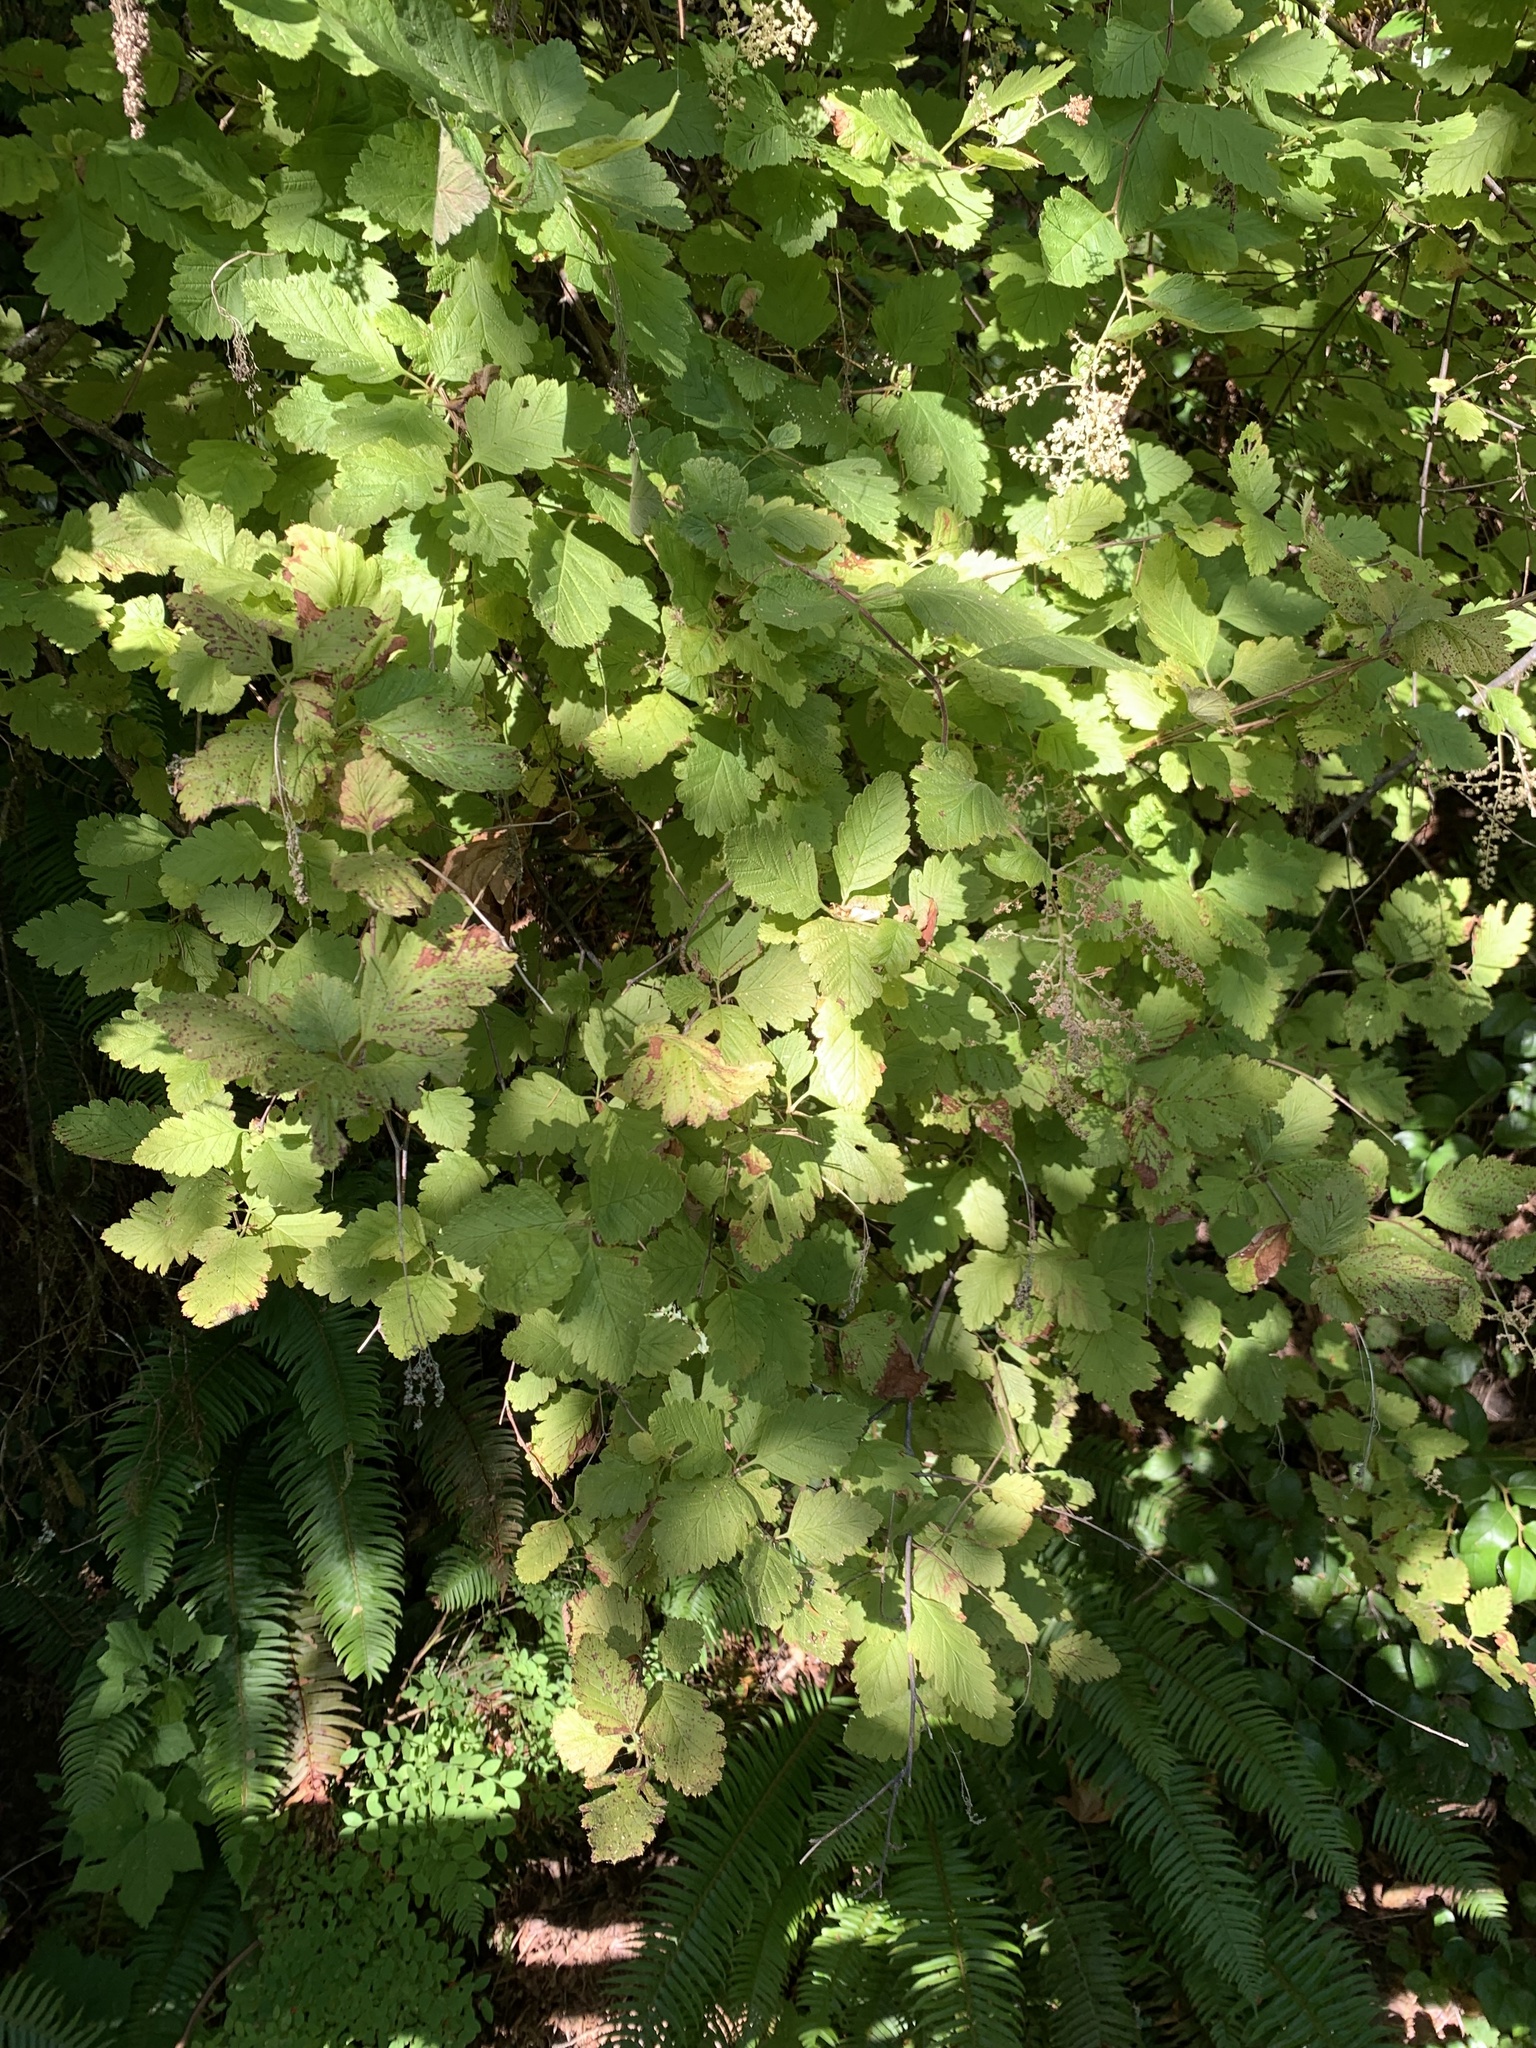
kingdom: Plantae
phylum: Tracheophyta
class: Magnoliopsida
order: Rosales
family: Rosaceae
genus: Holodiscus
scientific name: Holodiscus discolor
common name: Oceanspray
